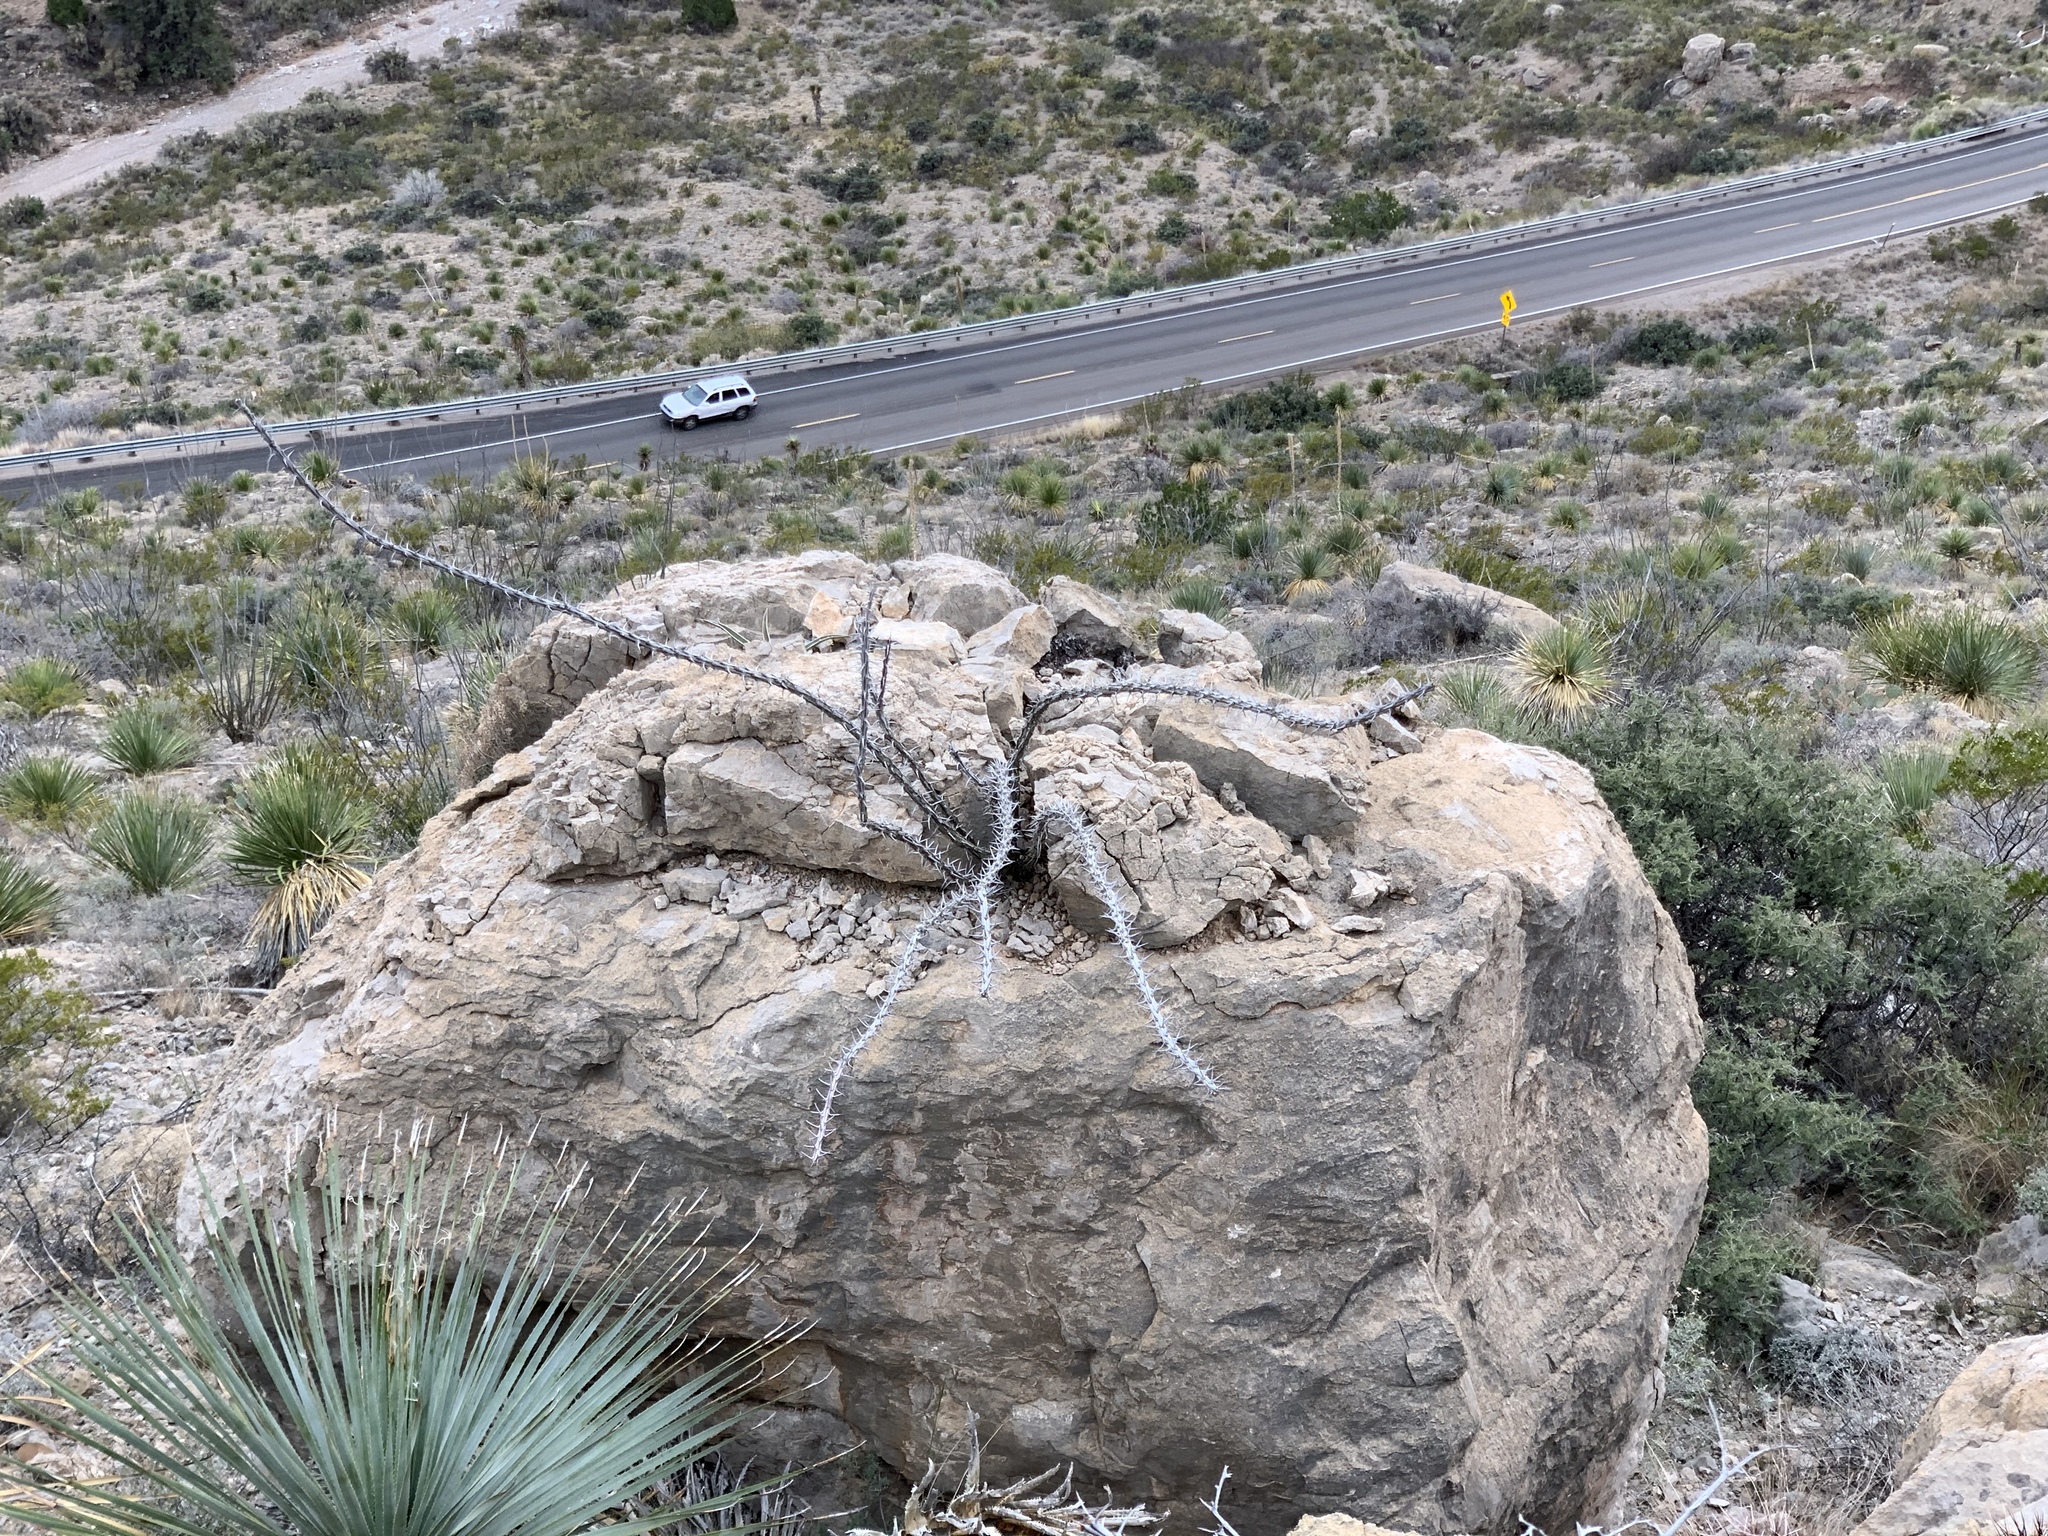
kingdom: Plantae
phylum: Tracheophyta
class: Magnoliopsida
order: Ericales
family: Fouquieriaceae
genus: Fouquieria
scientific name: Fouquieria splendens
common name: Vine-cactus
